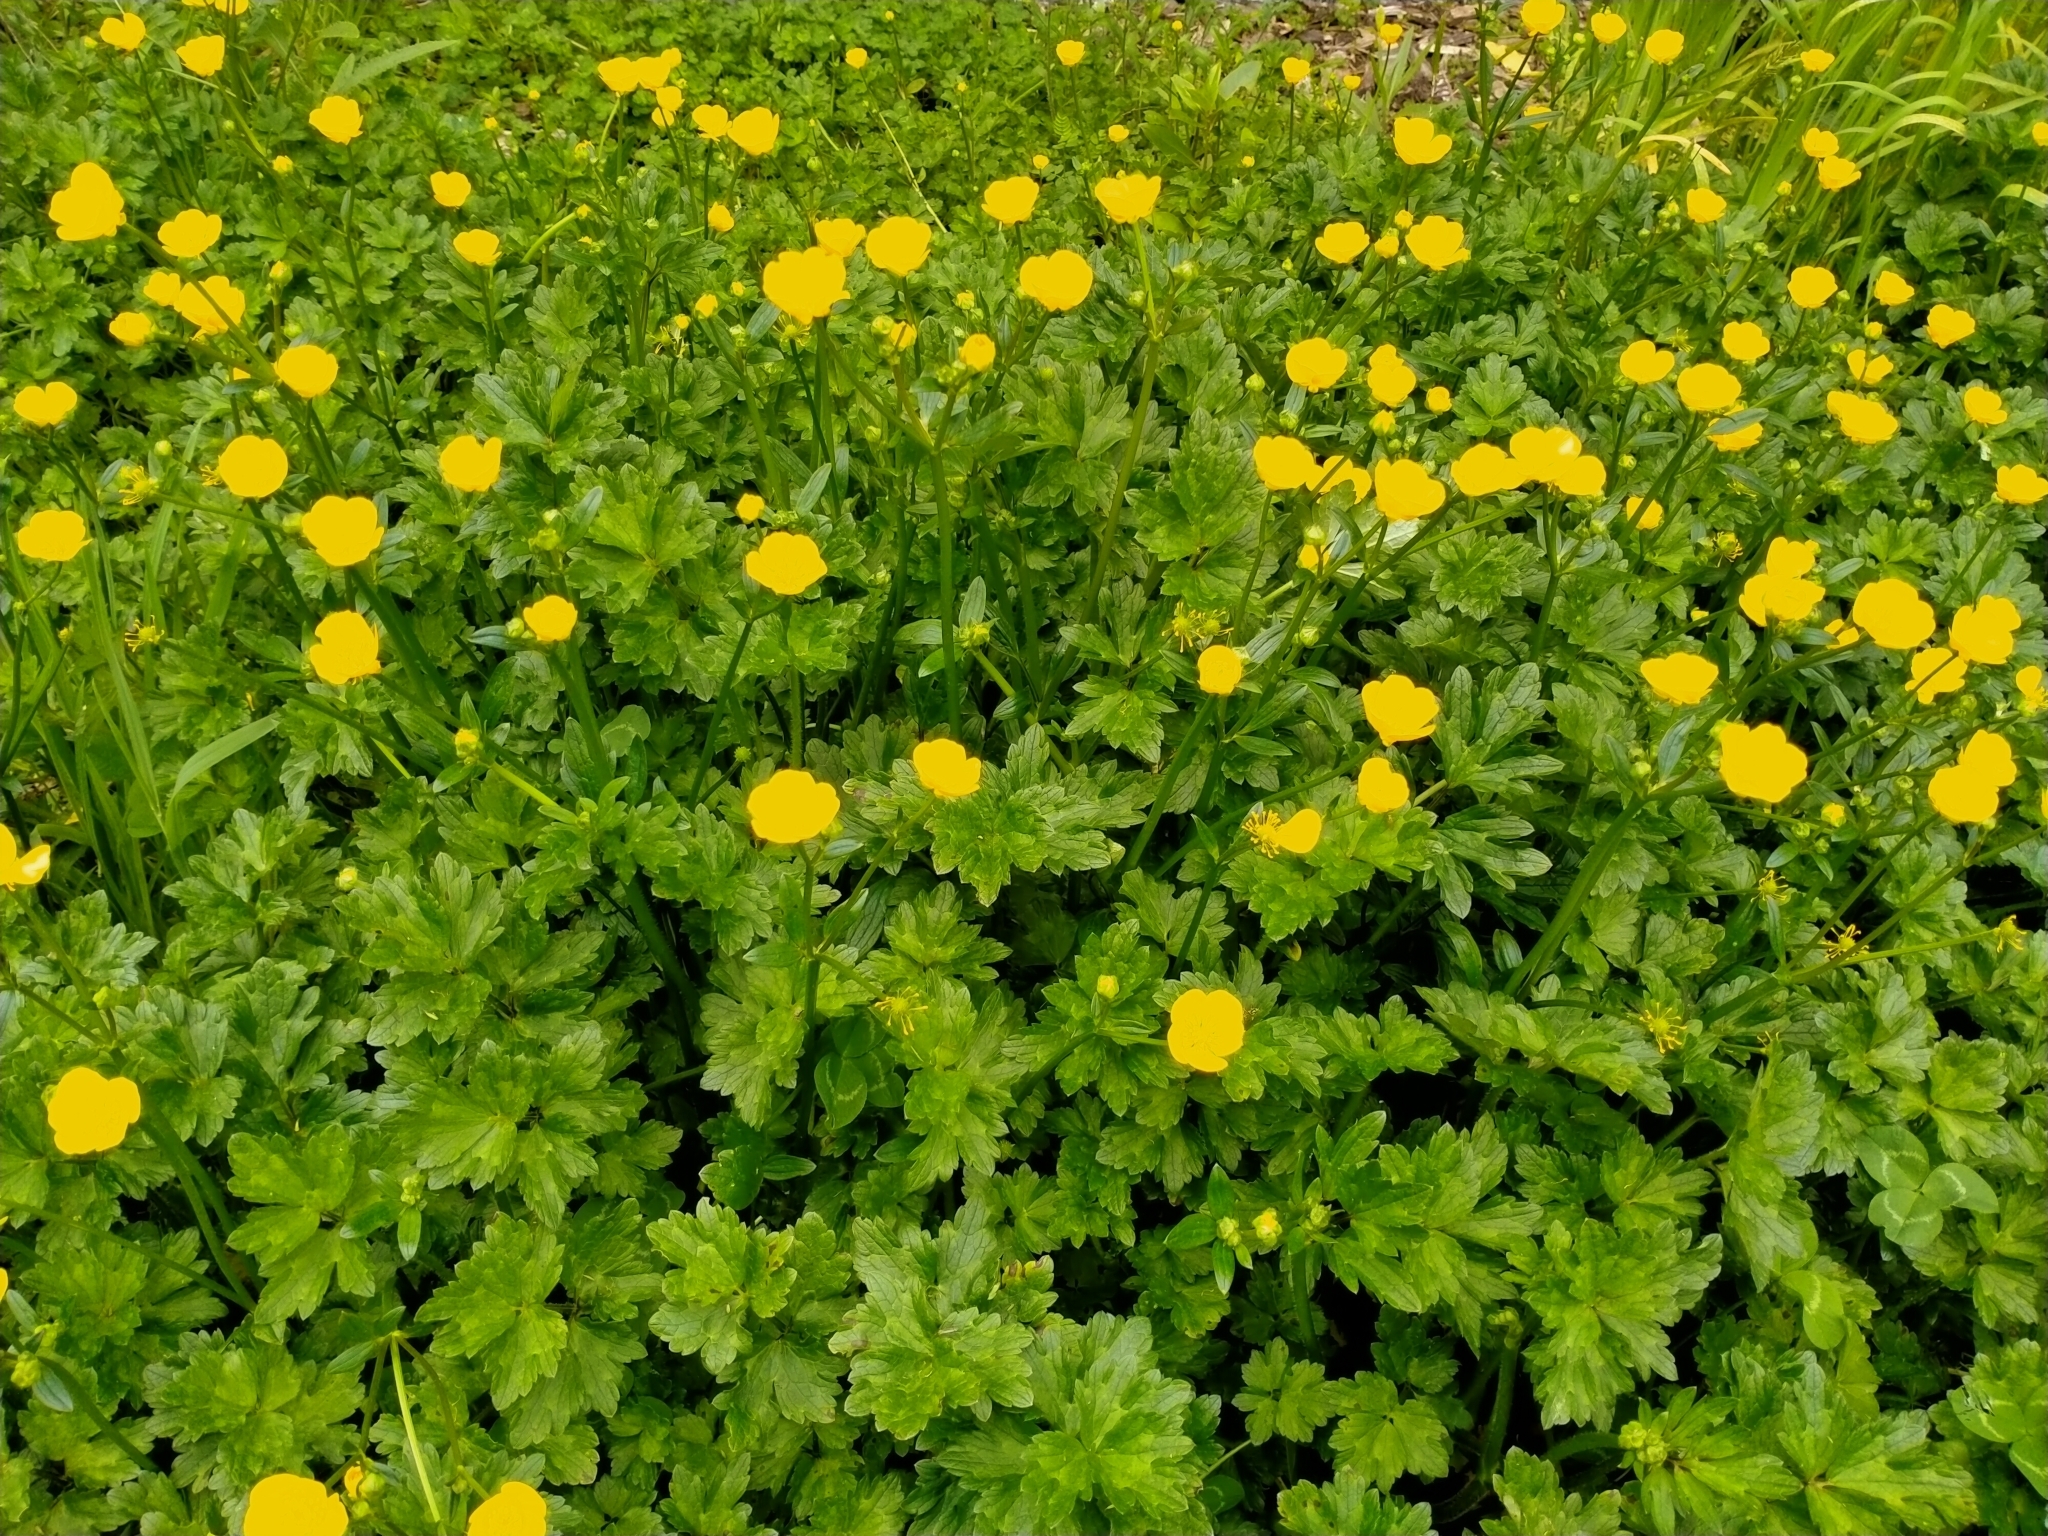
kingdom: Plantae
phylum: Tracheophyta
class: Magnoliopsida
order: Ranunculales
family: Ranunculaceae
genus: Ranunculus
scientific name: Ranunculus repens
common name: Creeping buttercup
